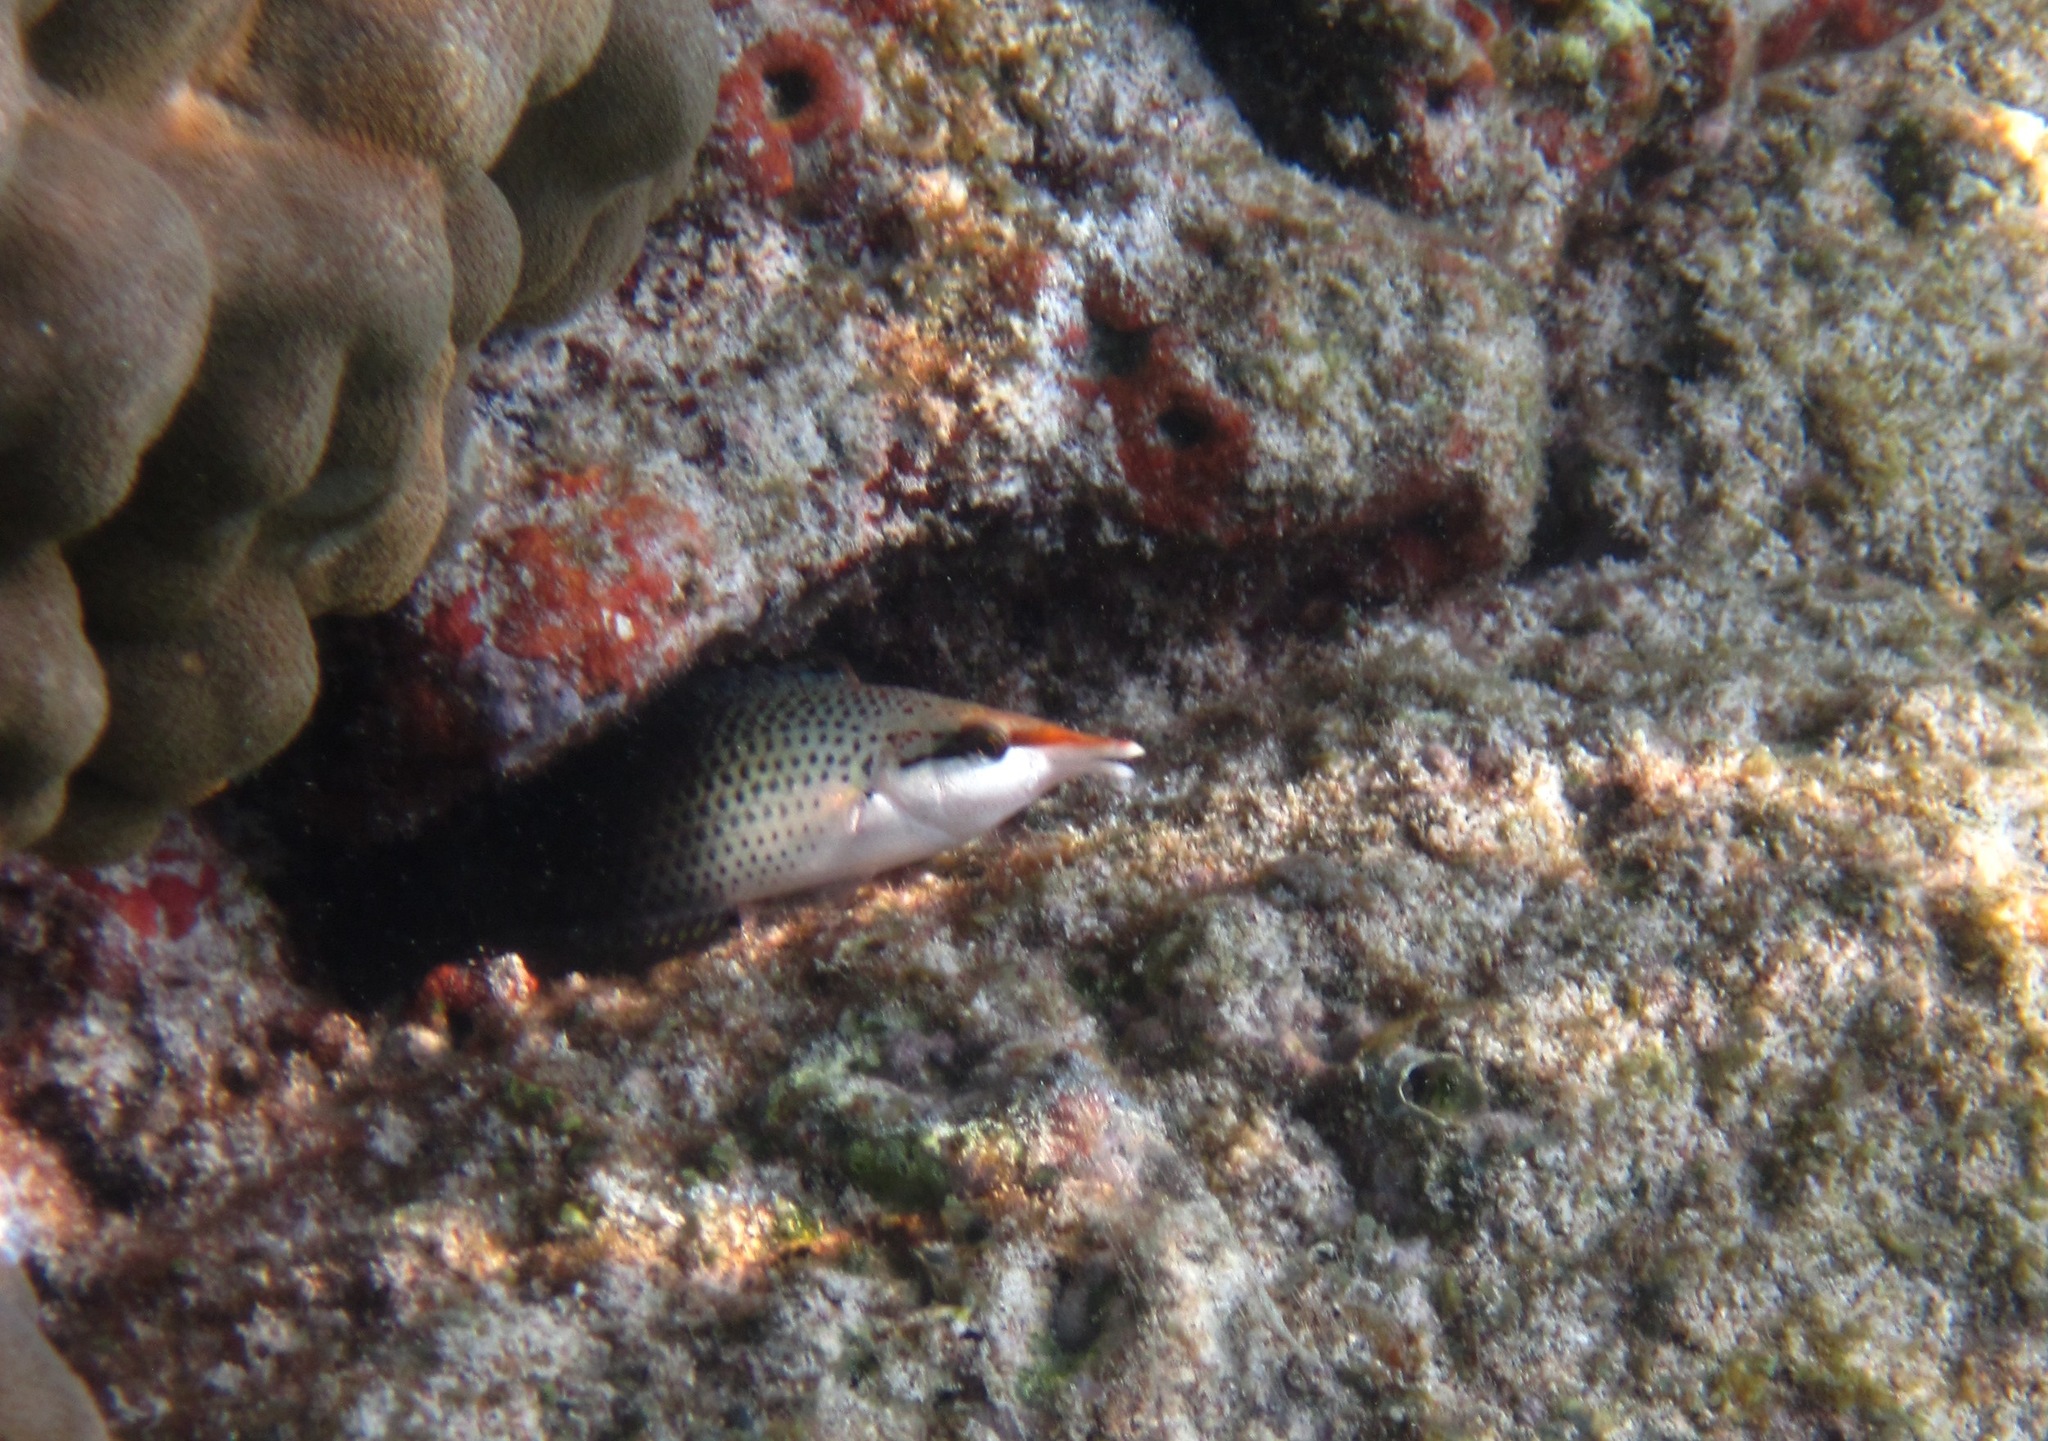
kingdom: Animalia
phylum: Chordata
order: Perciformes
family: Labridae
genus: Gomphosus
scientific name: Gomphosus varius
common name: Bird wrasse
